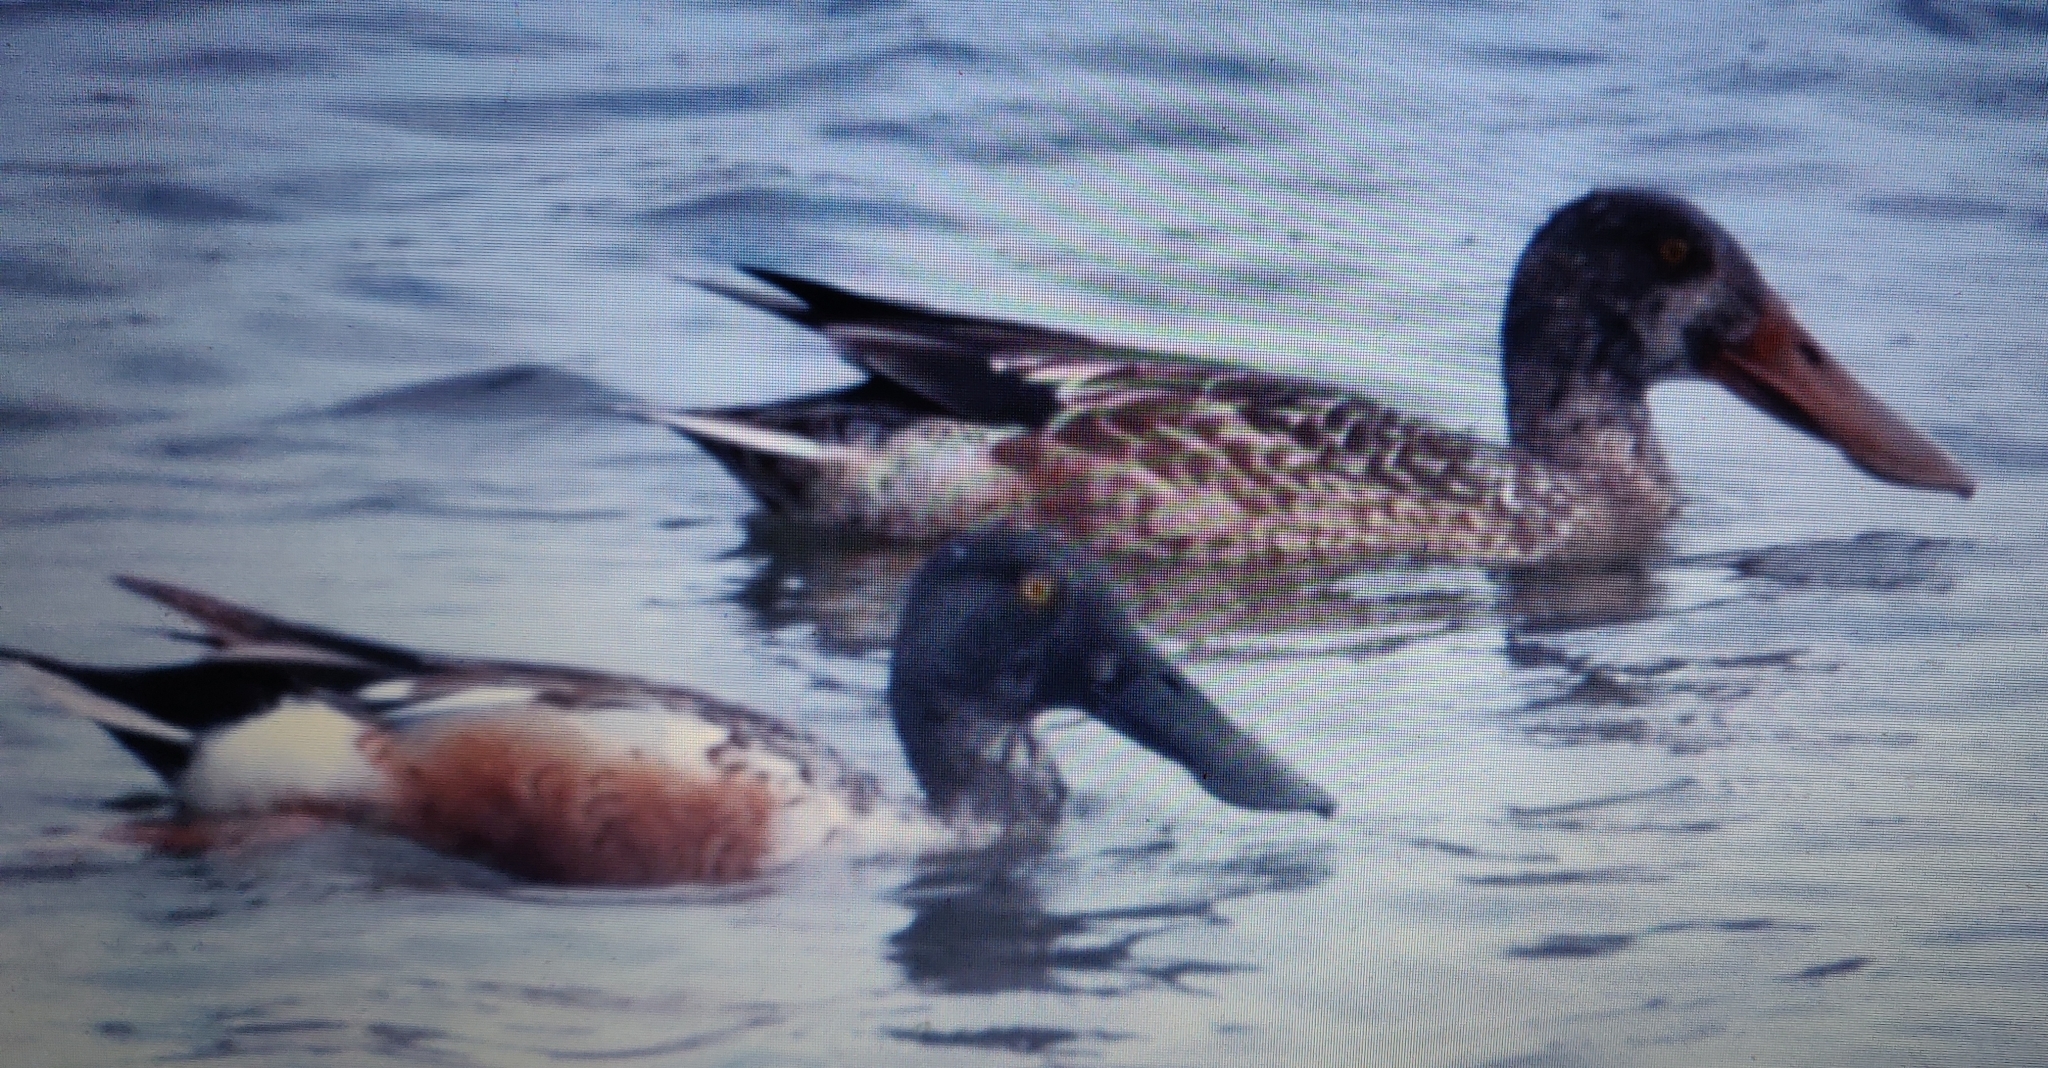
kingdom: Animalia
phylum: Chordata
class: Aves
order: Anseriformes
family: Anatidae
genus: Spatula
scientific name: Spatula clypeata
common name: Northern shoveler
